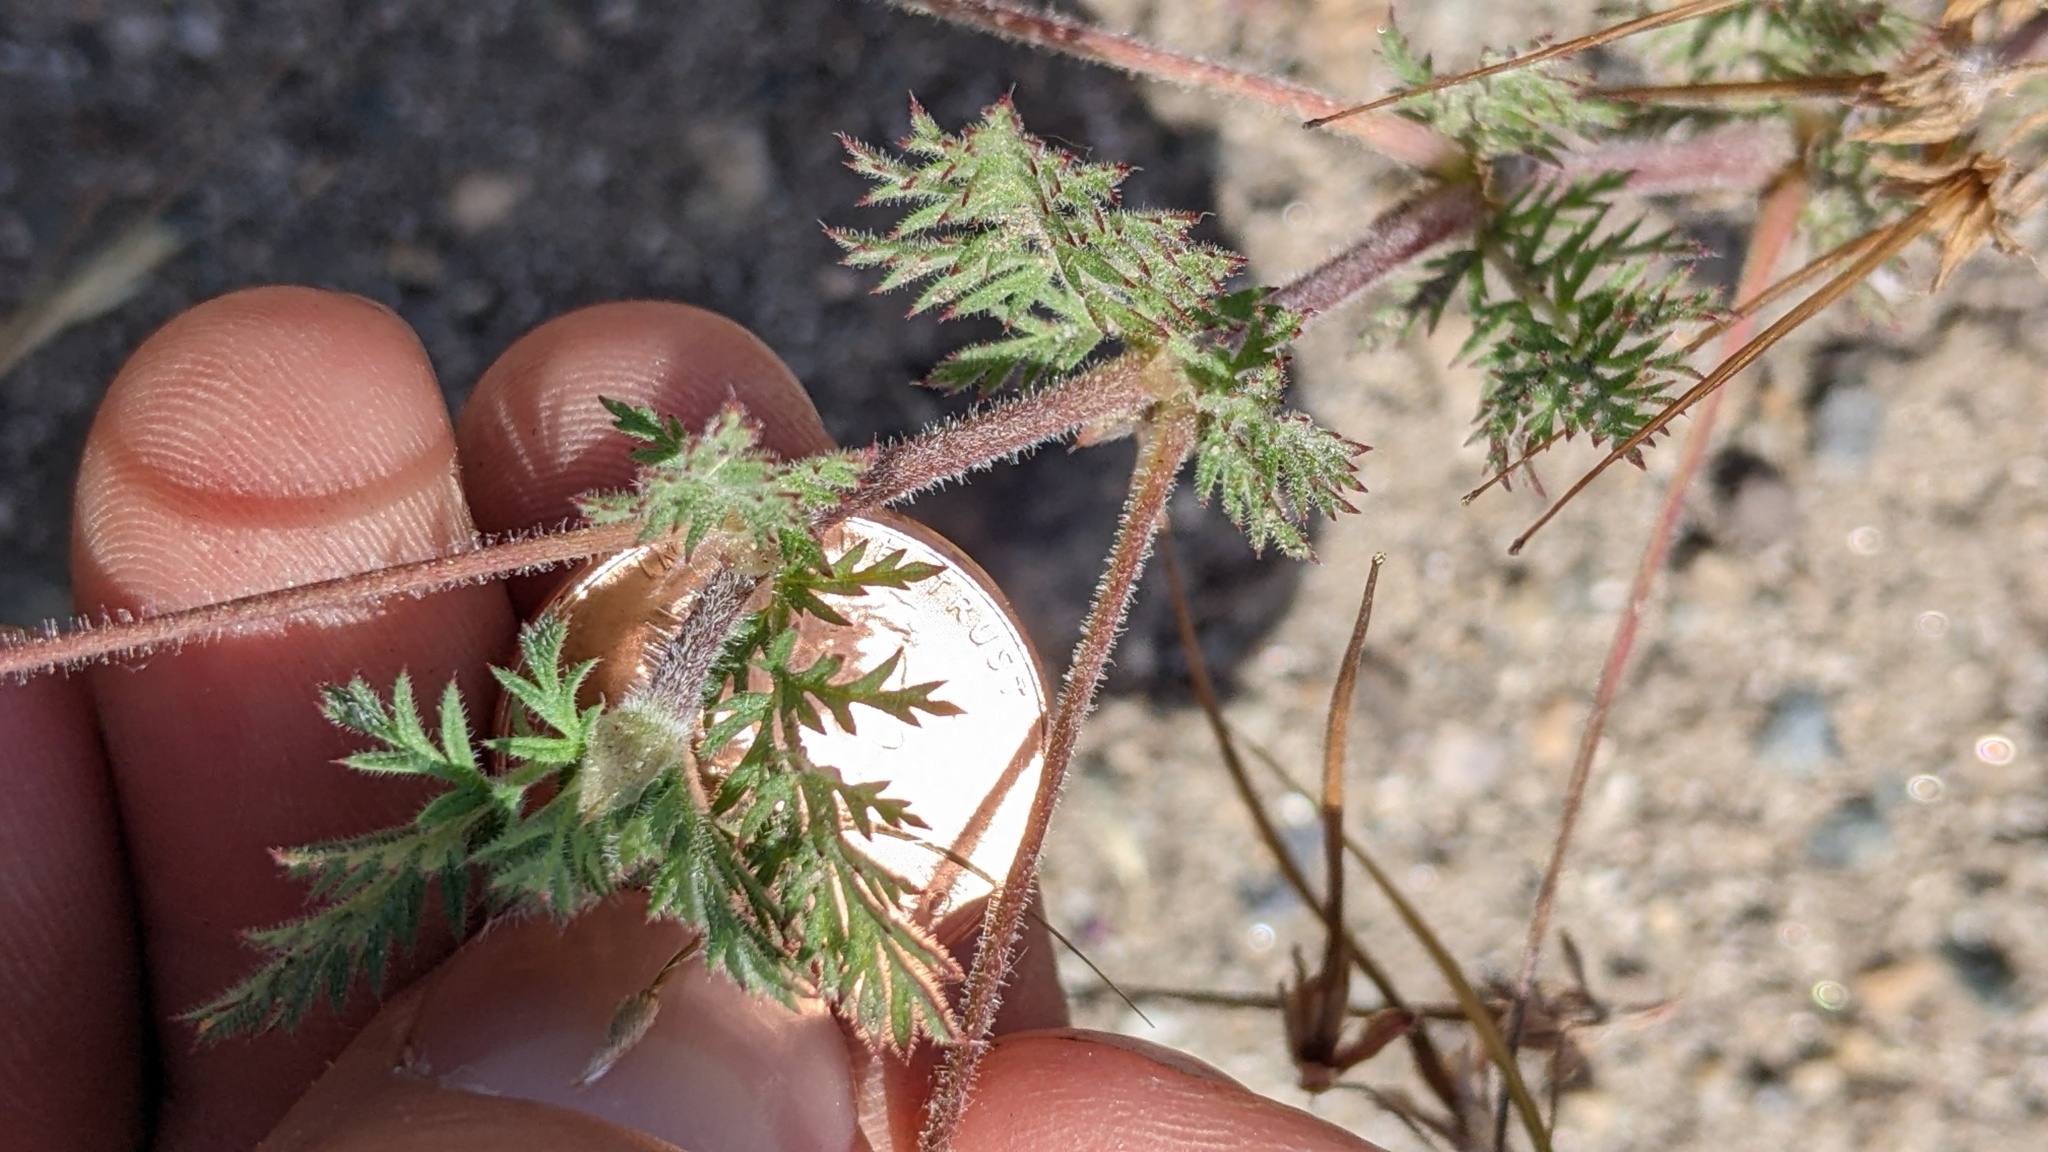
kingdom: Plantae
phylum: Tracheophyta
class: Magnoliopsida
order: Geraniales
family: Geraniaceae
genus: Erodium
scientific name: Erodium cicutarium
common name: Common stork's-bill
